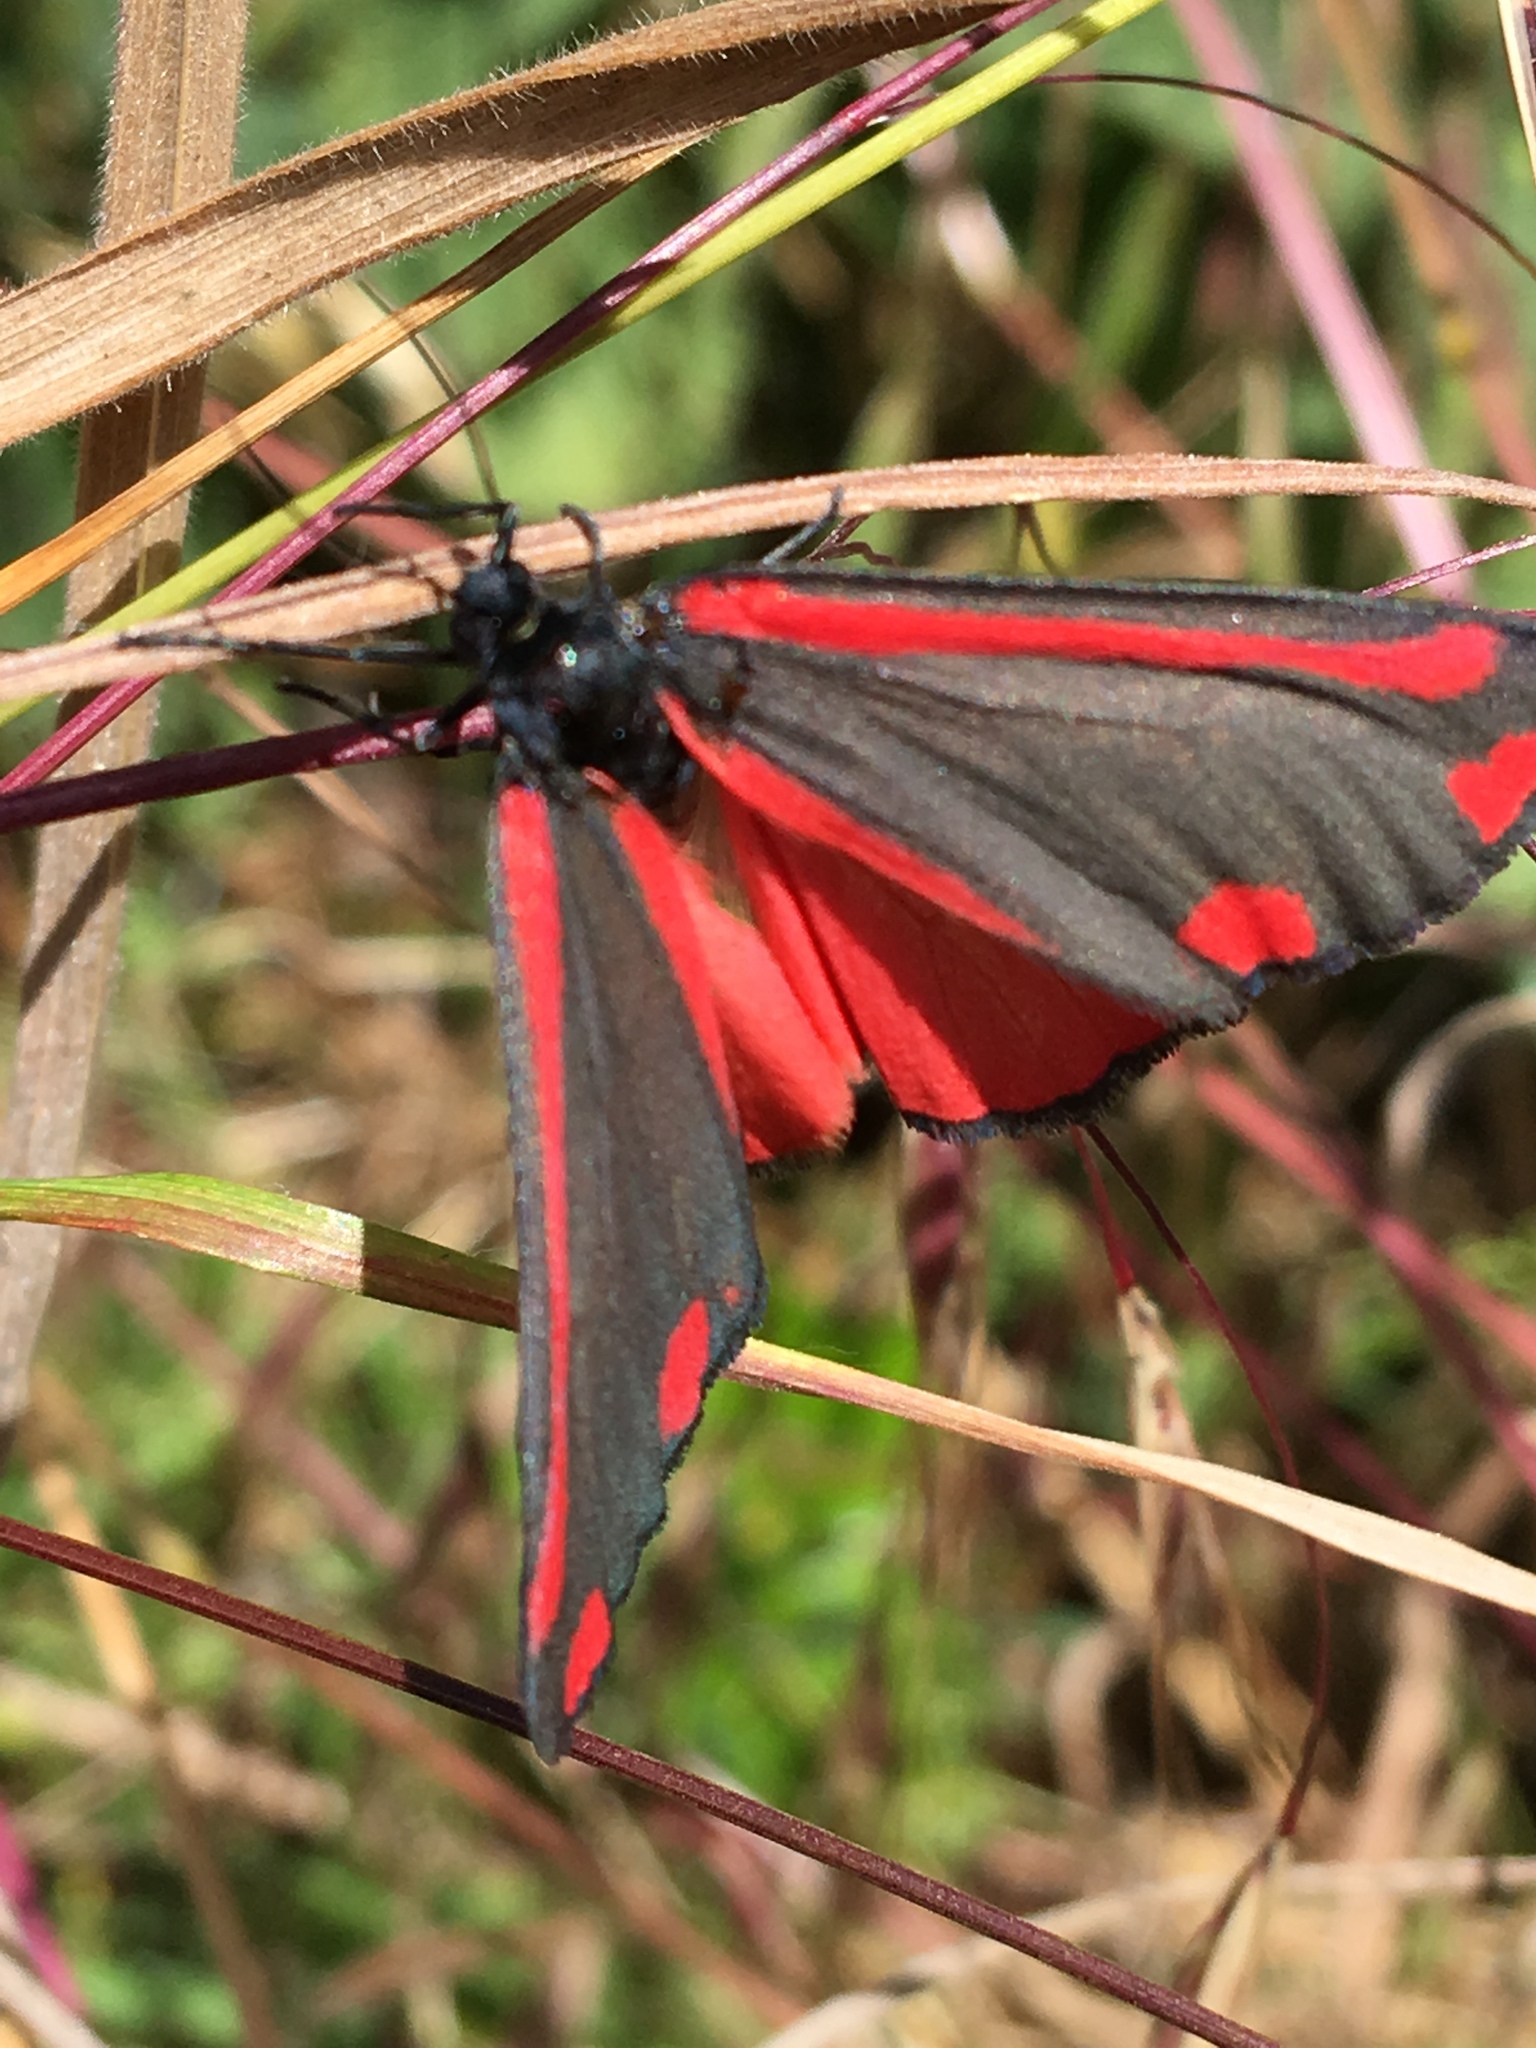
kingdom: Animalia
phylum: Arthropoda
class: Insecta
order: Lepidoptera
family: Erebidae
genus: Tyria
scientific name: Tyria jacobaeae
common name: Cinnabar
